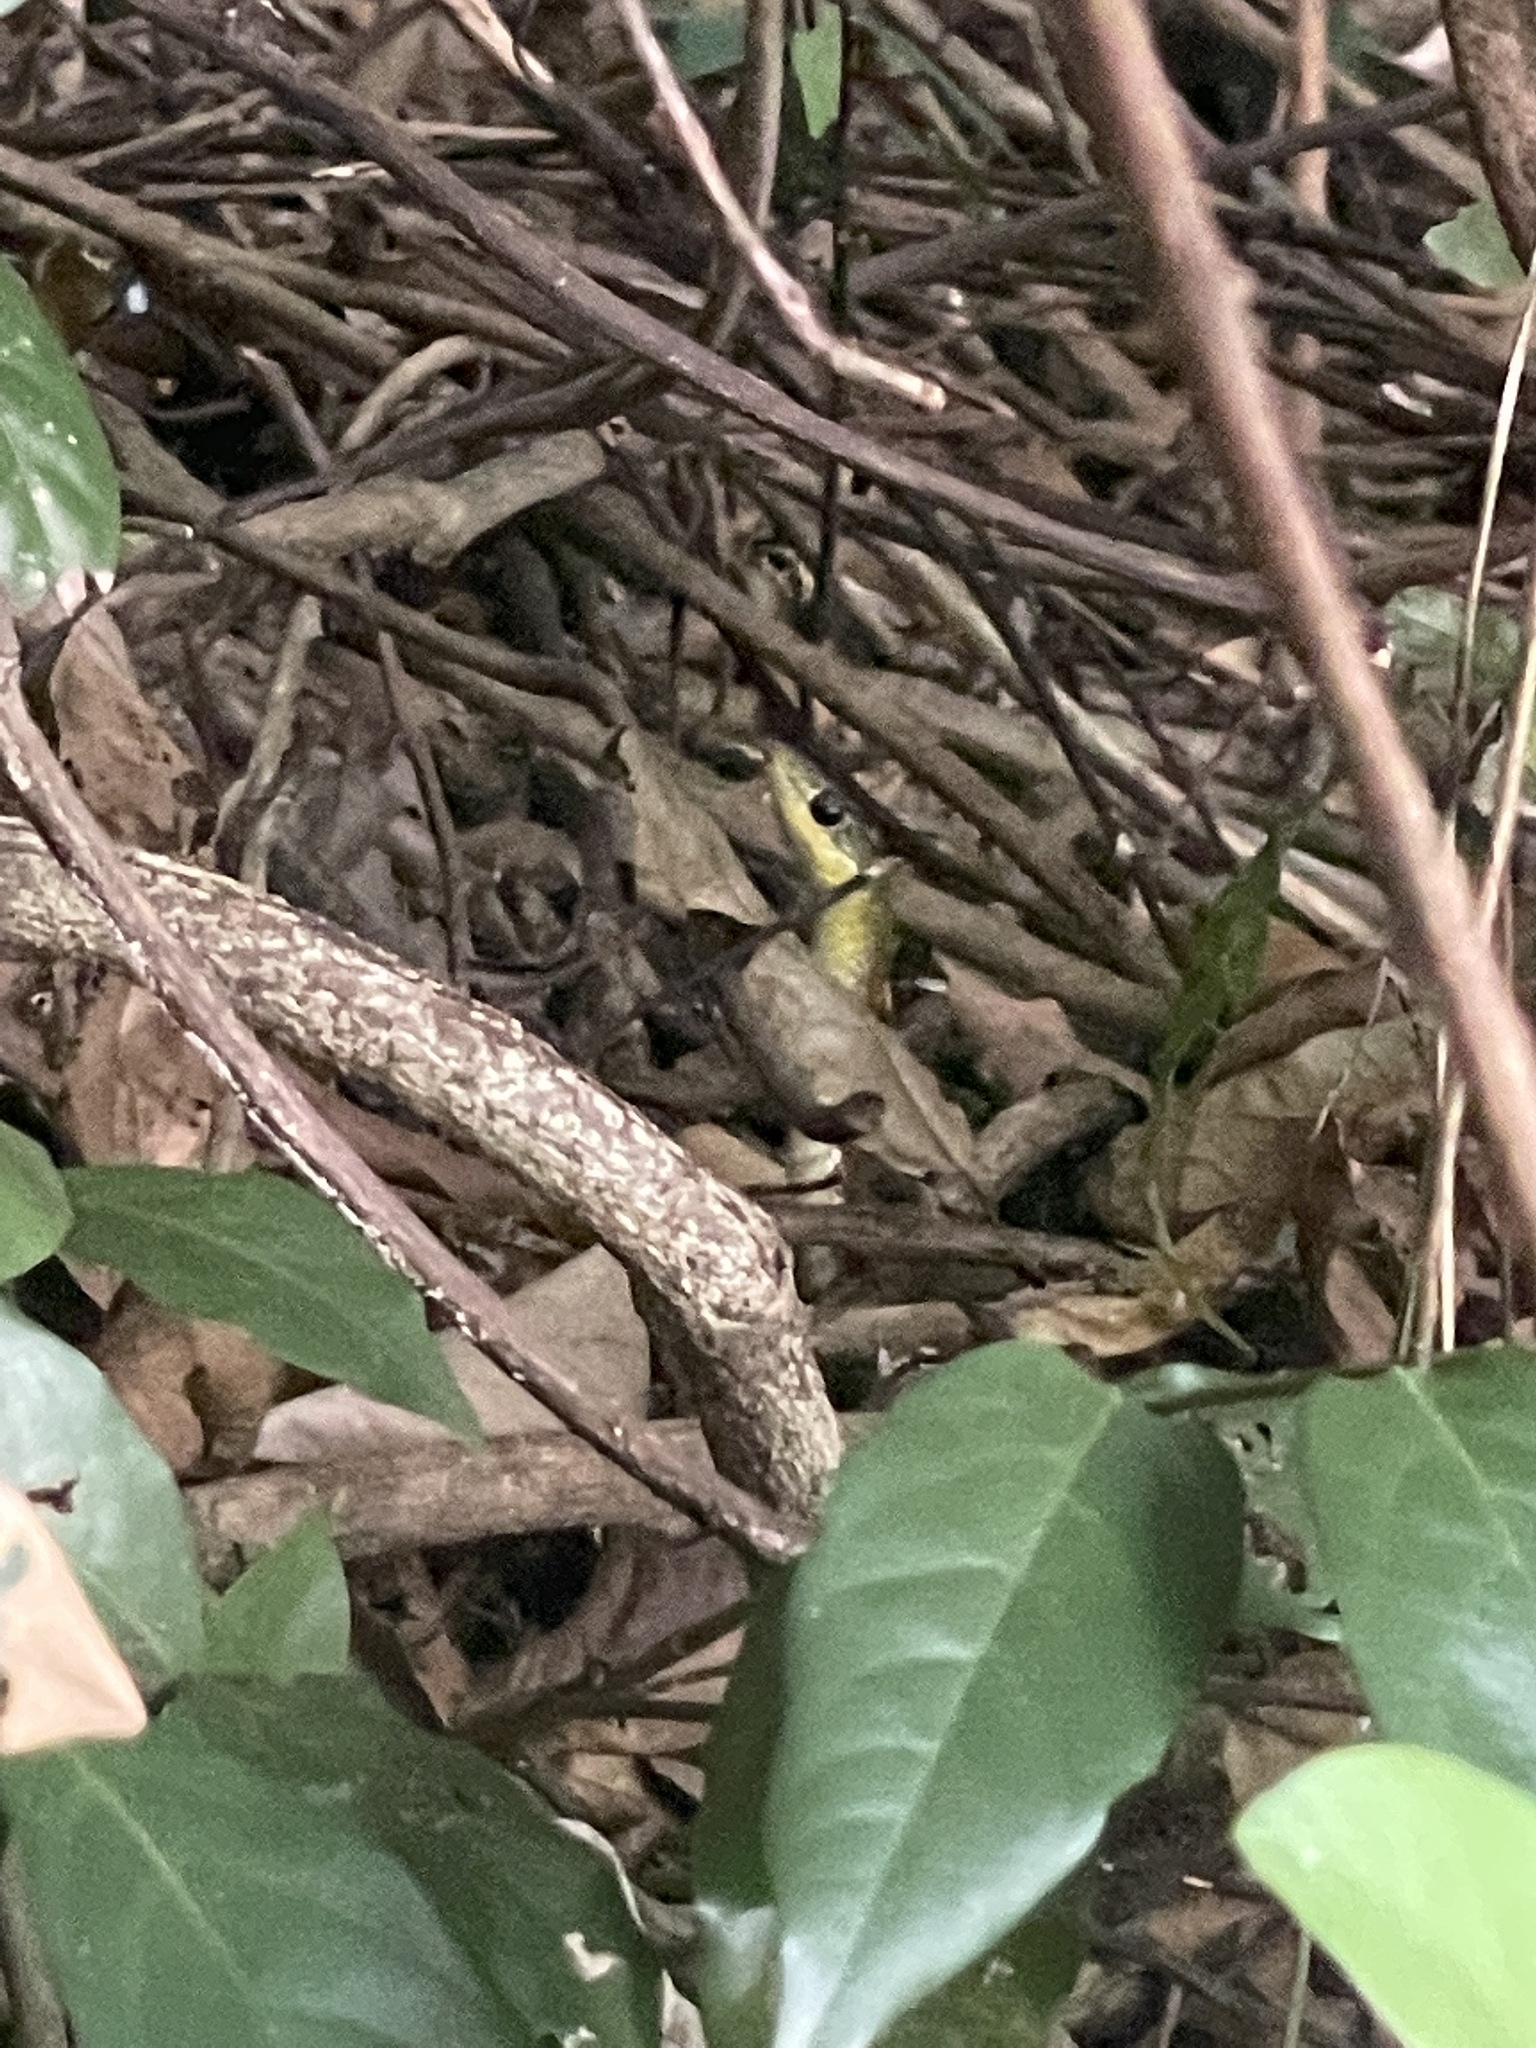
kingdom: Animalia
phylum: Chordata
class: Squamata
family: Colubridae
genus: Rhabdophis
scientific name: Rhabdophis helleri
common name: Heller’s red-necked keelback
